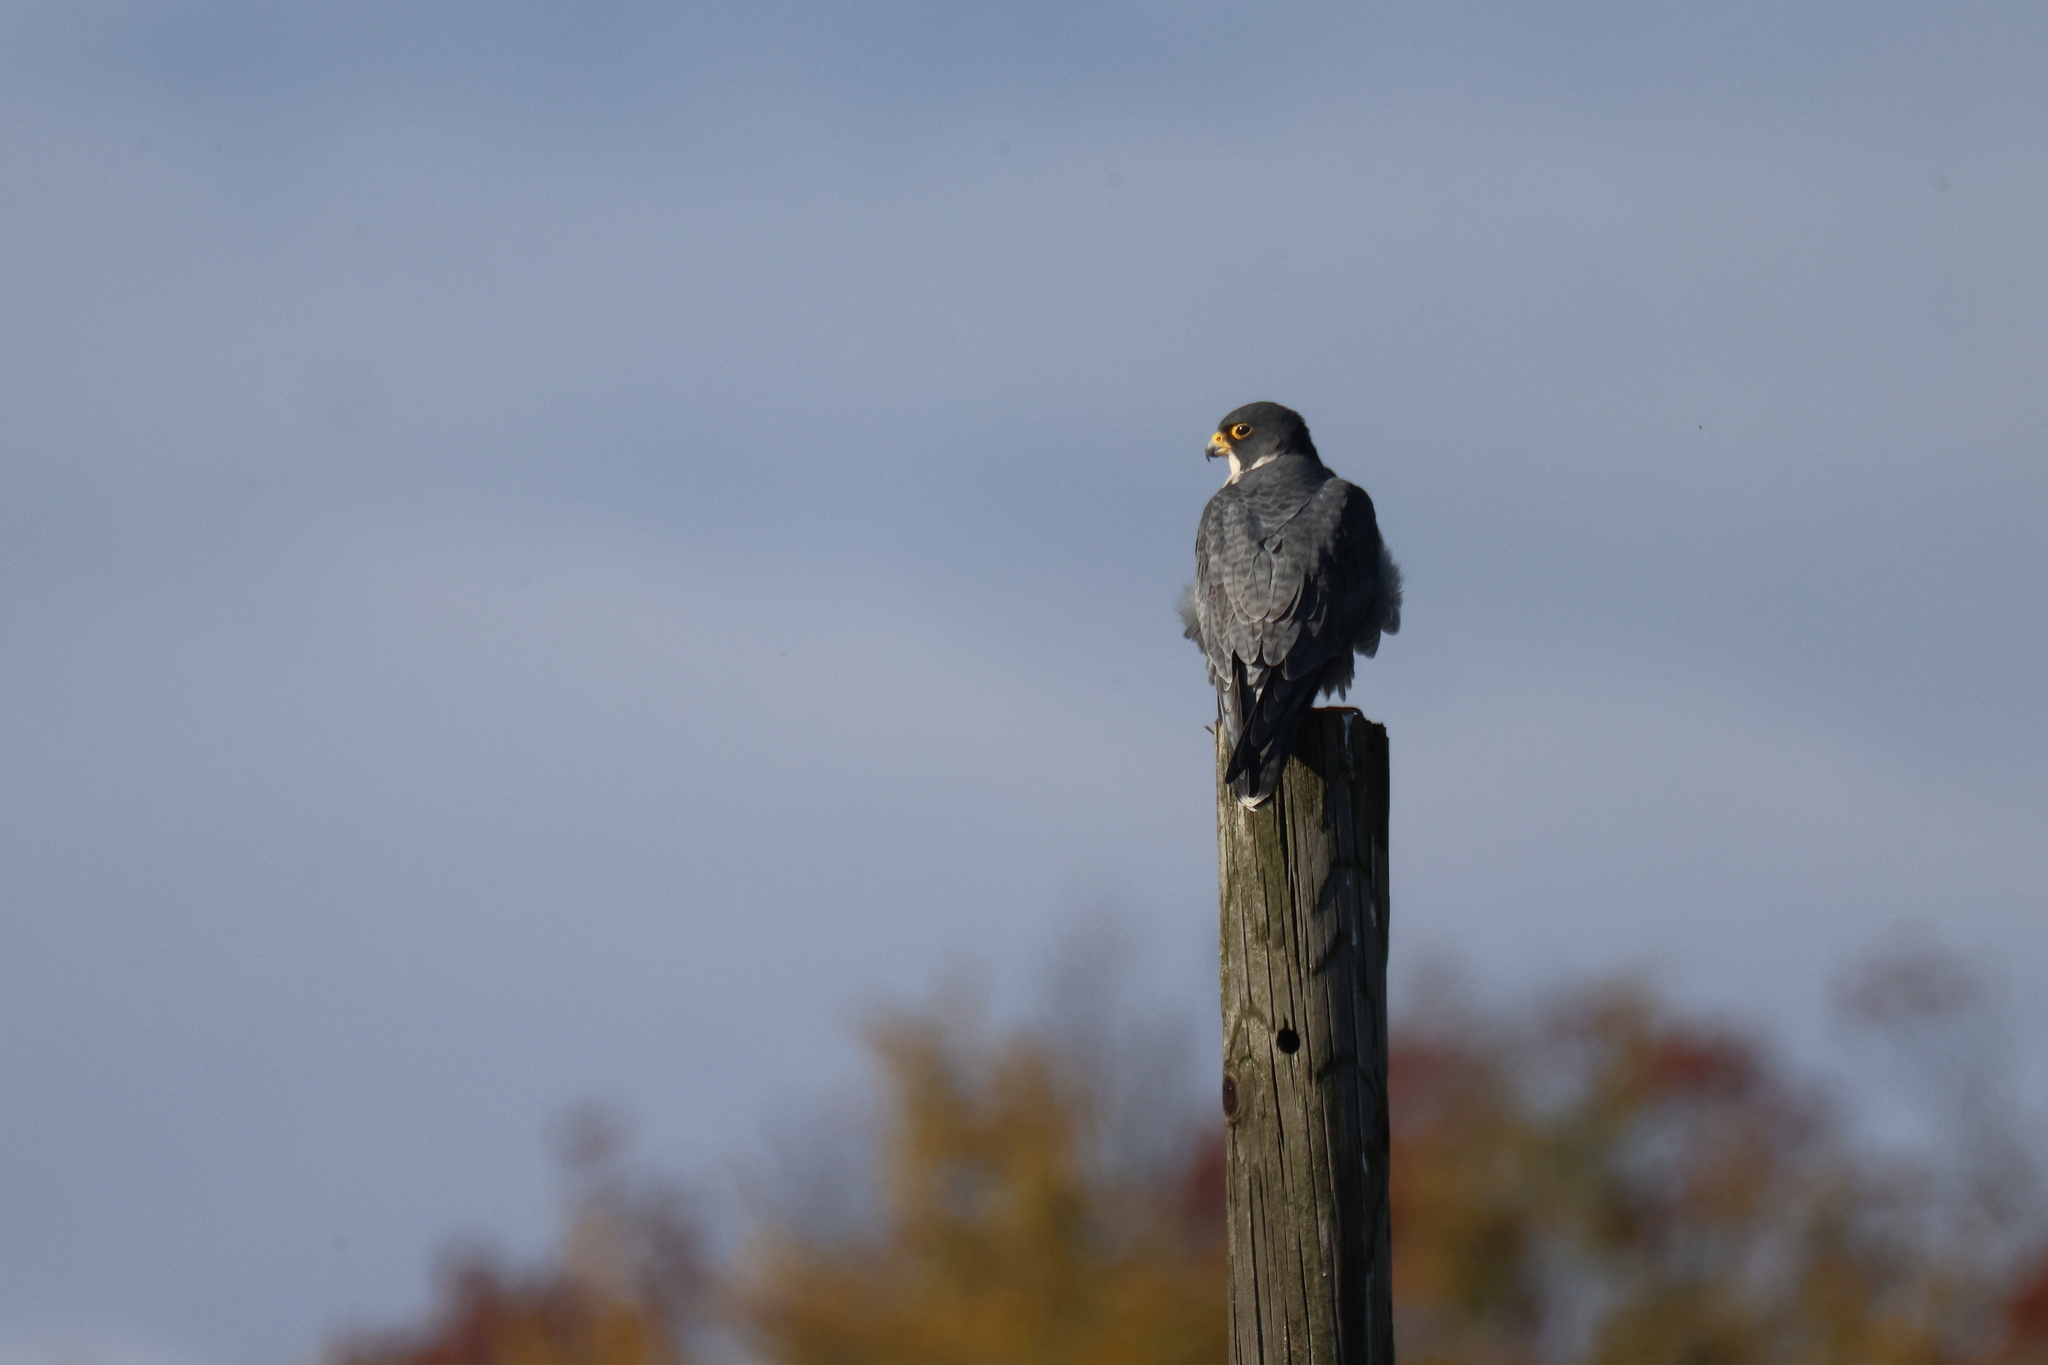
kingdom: Animalia
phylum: Chordata
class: Aves
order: Falconiformes
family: Falconidae
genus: Falco
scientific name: Falco peregrinus
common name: Peregrine falcon
